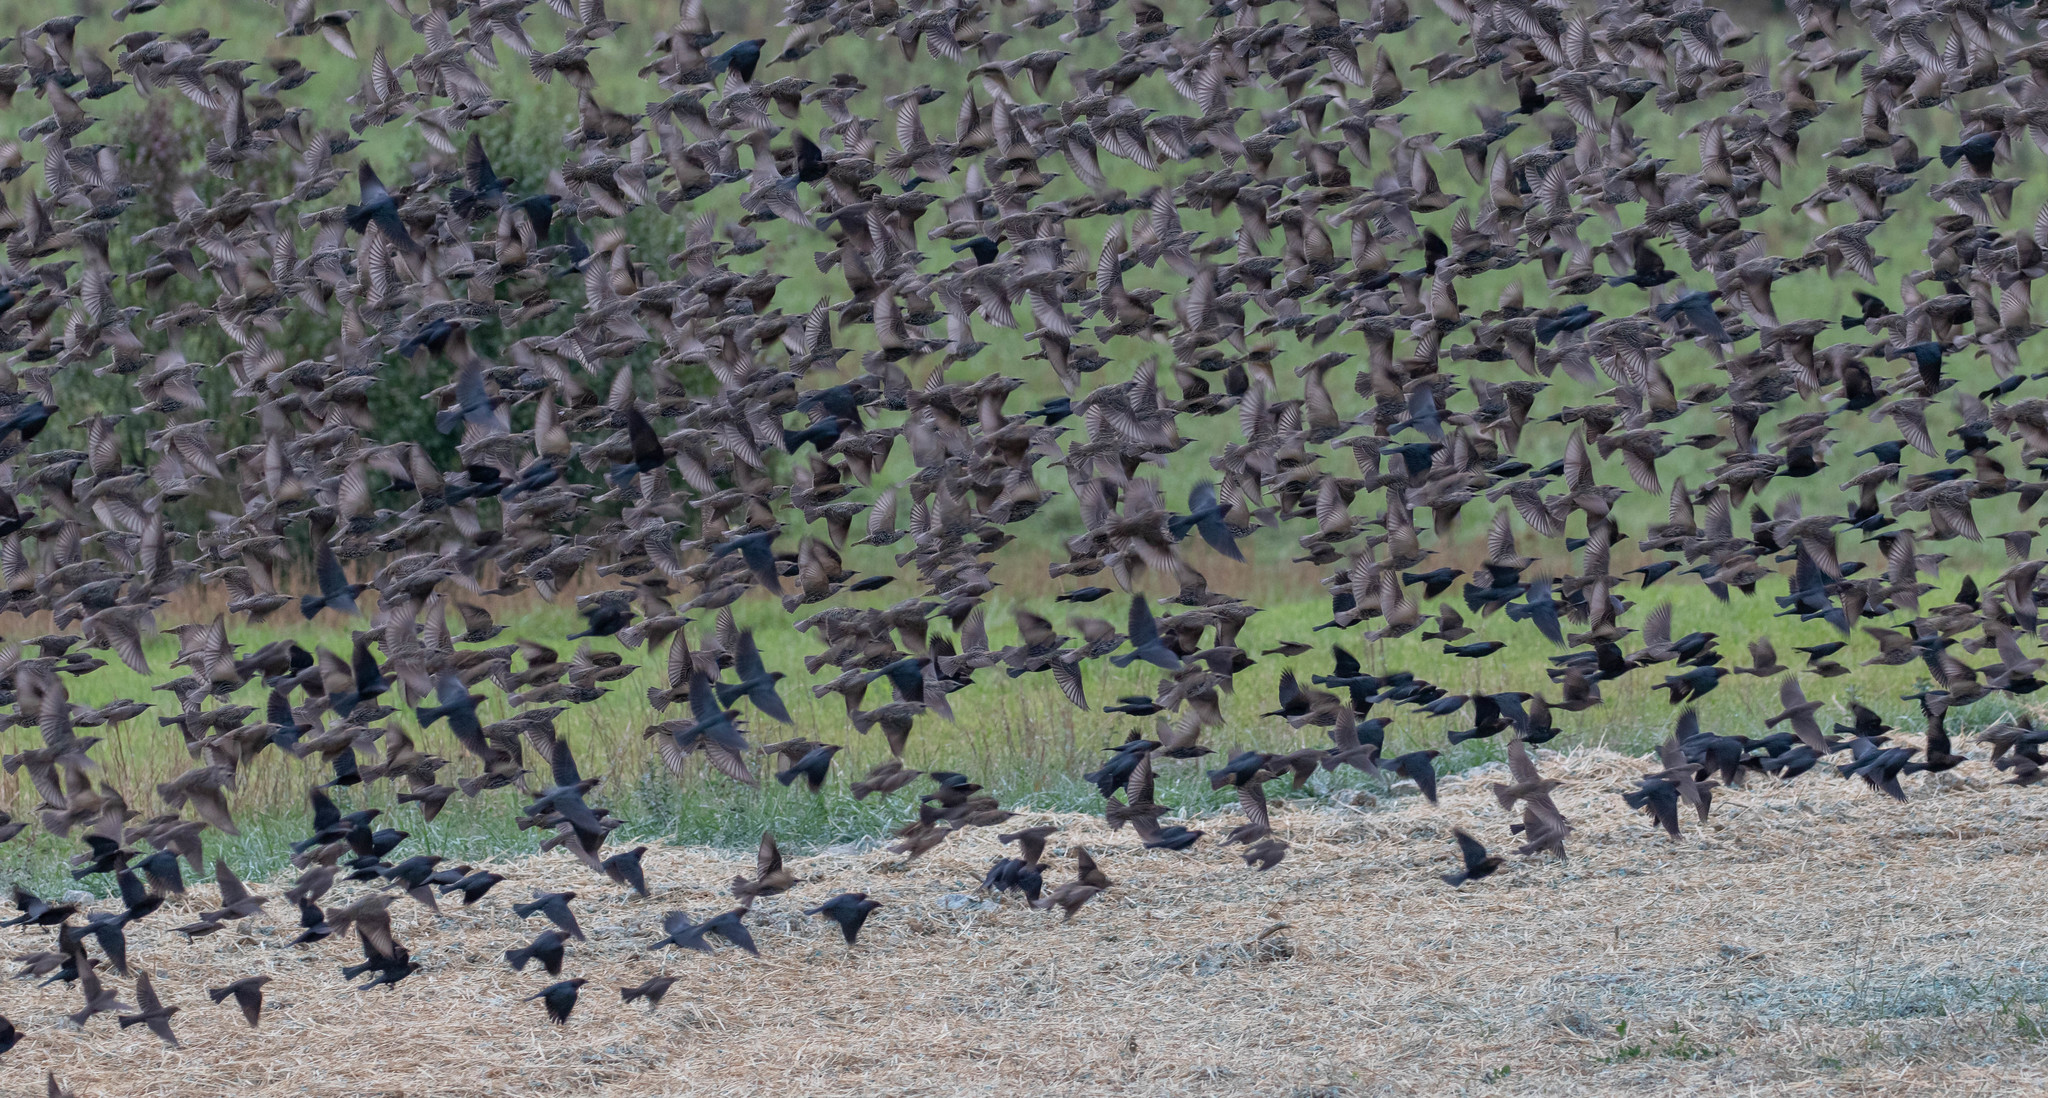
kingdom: Animalia
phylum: Chordata
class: Aves
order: Passeriformes
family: Icteridae
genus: Molothrus
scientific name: Molothrus ater
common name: Brown-headed cowbird
